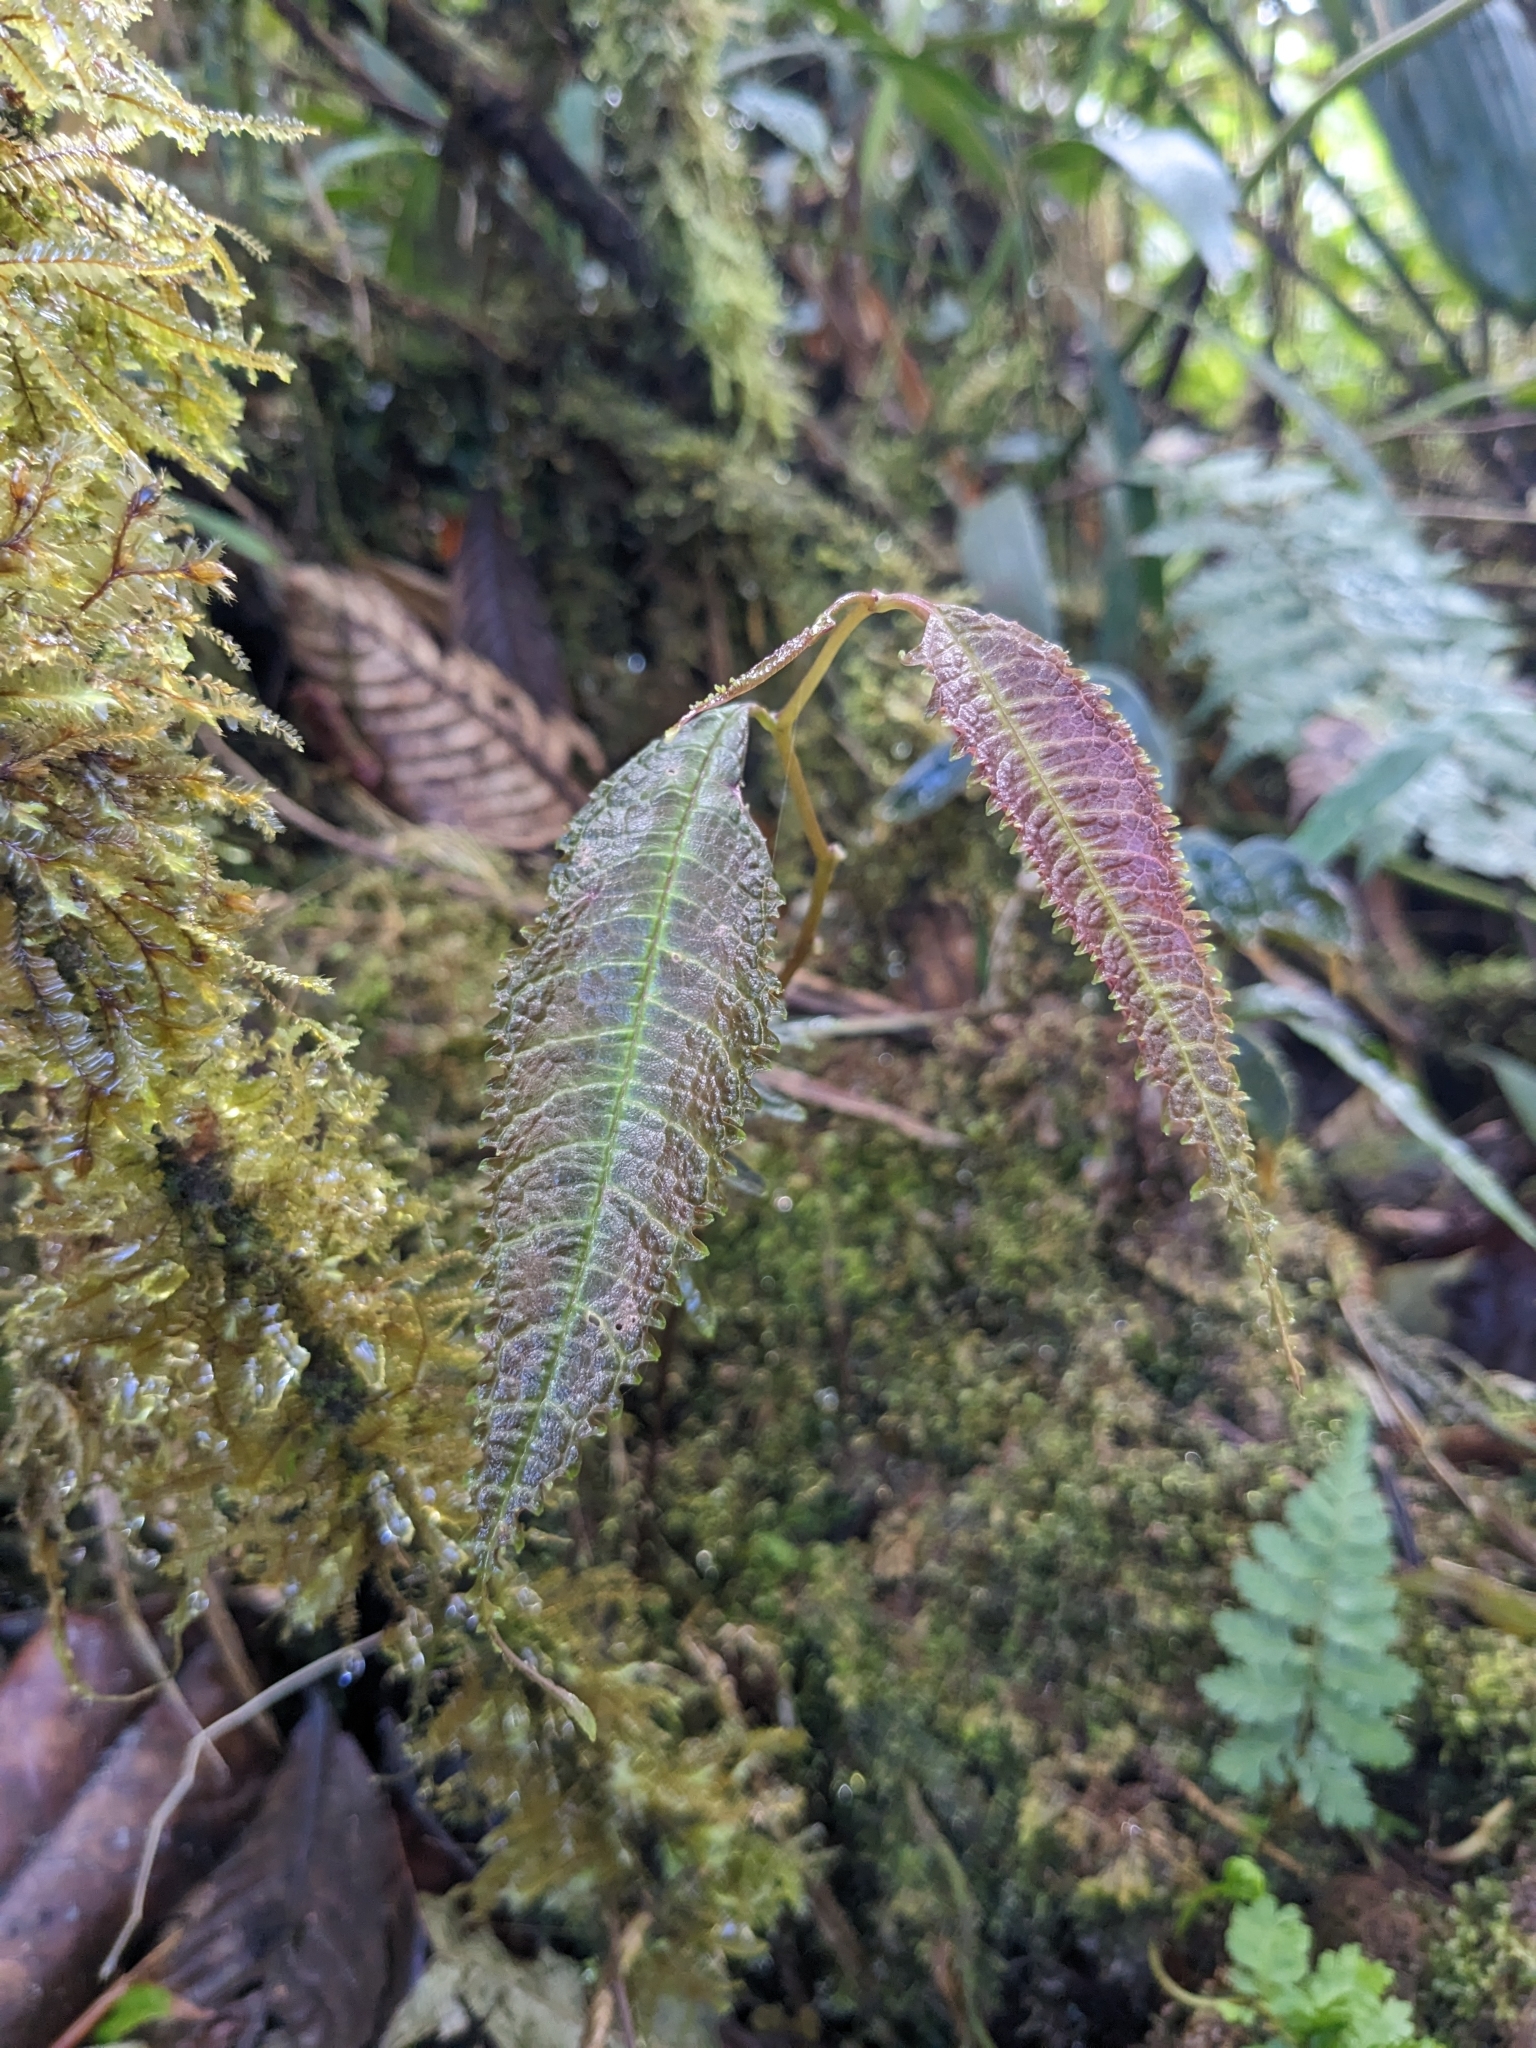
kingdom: Plantae
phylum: Tracheophyta
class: Magnoliopsida
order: Asterales
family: Campanulaceae
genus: Burmeistera
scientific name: Burmeistera erosa
